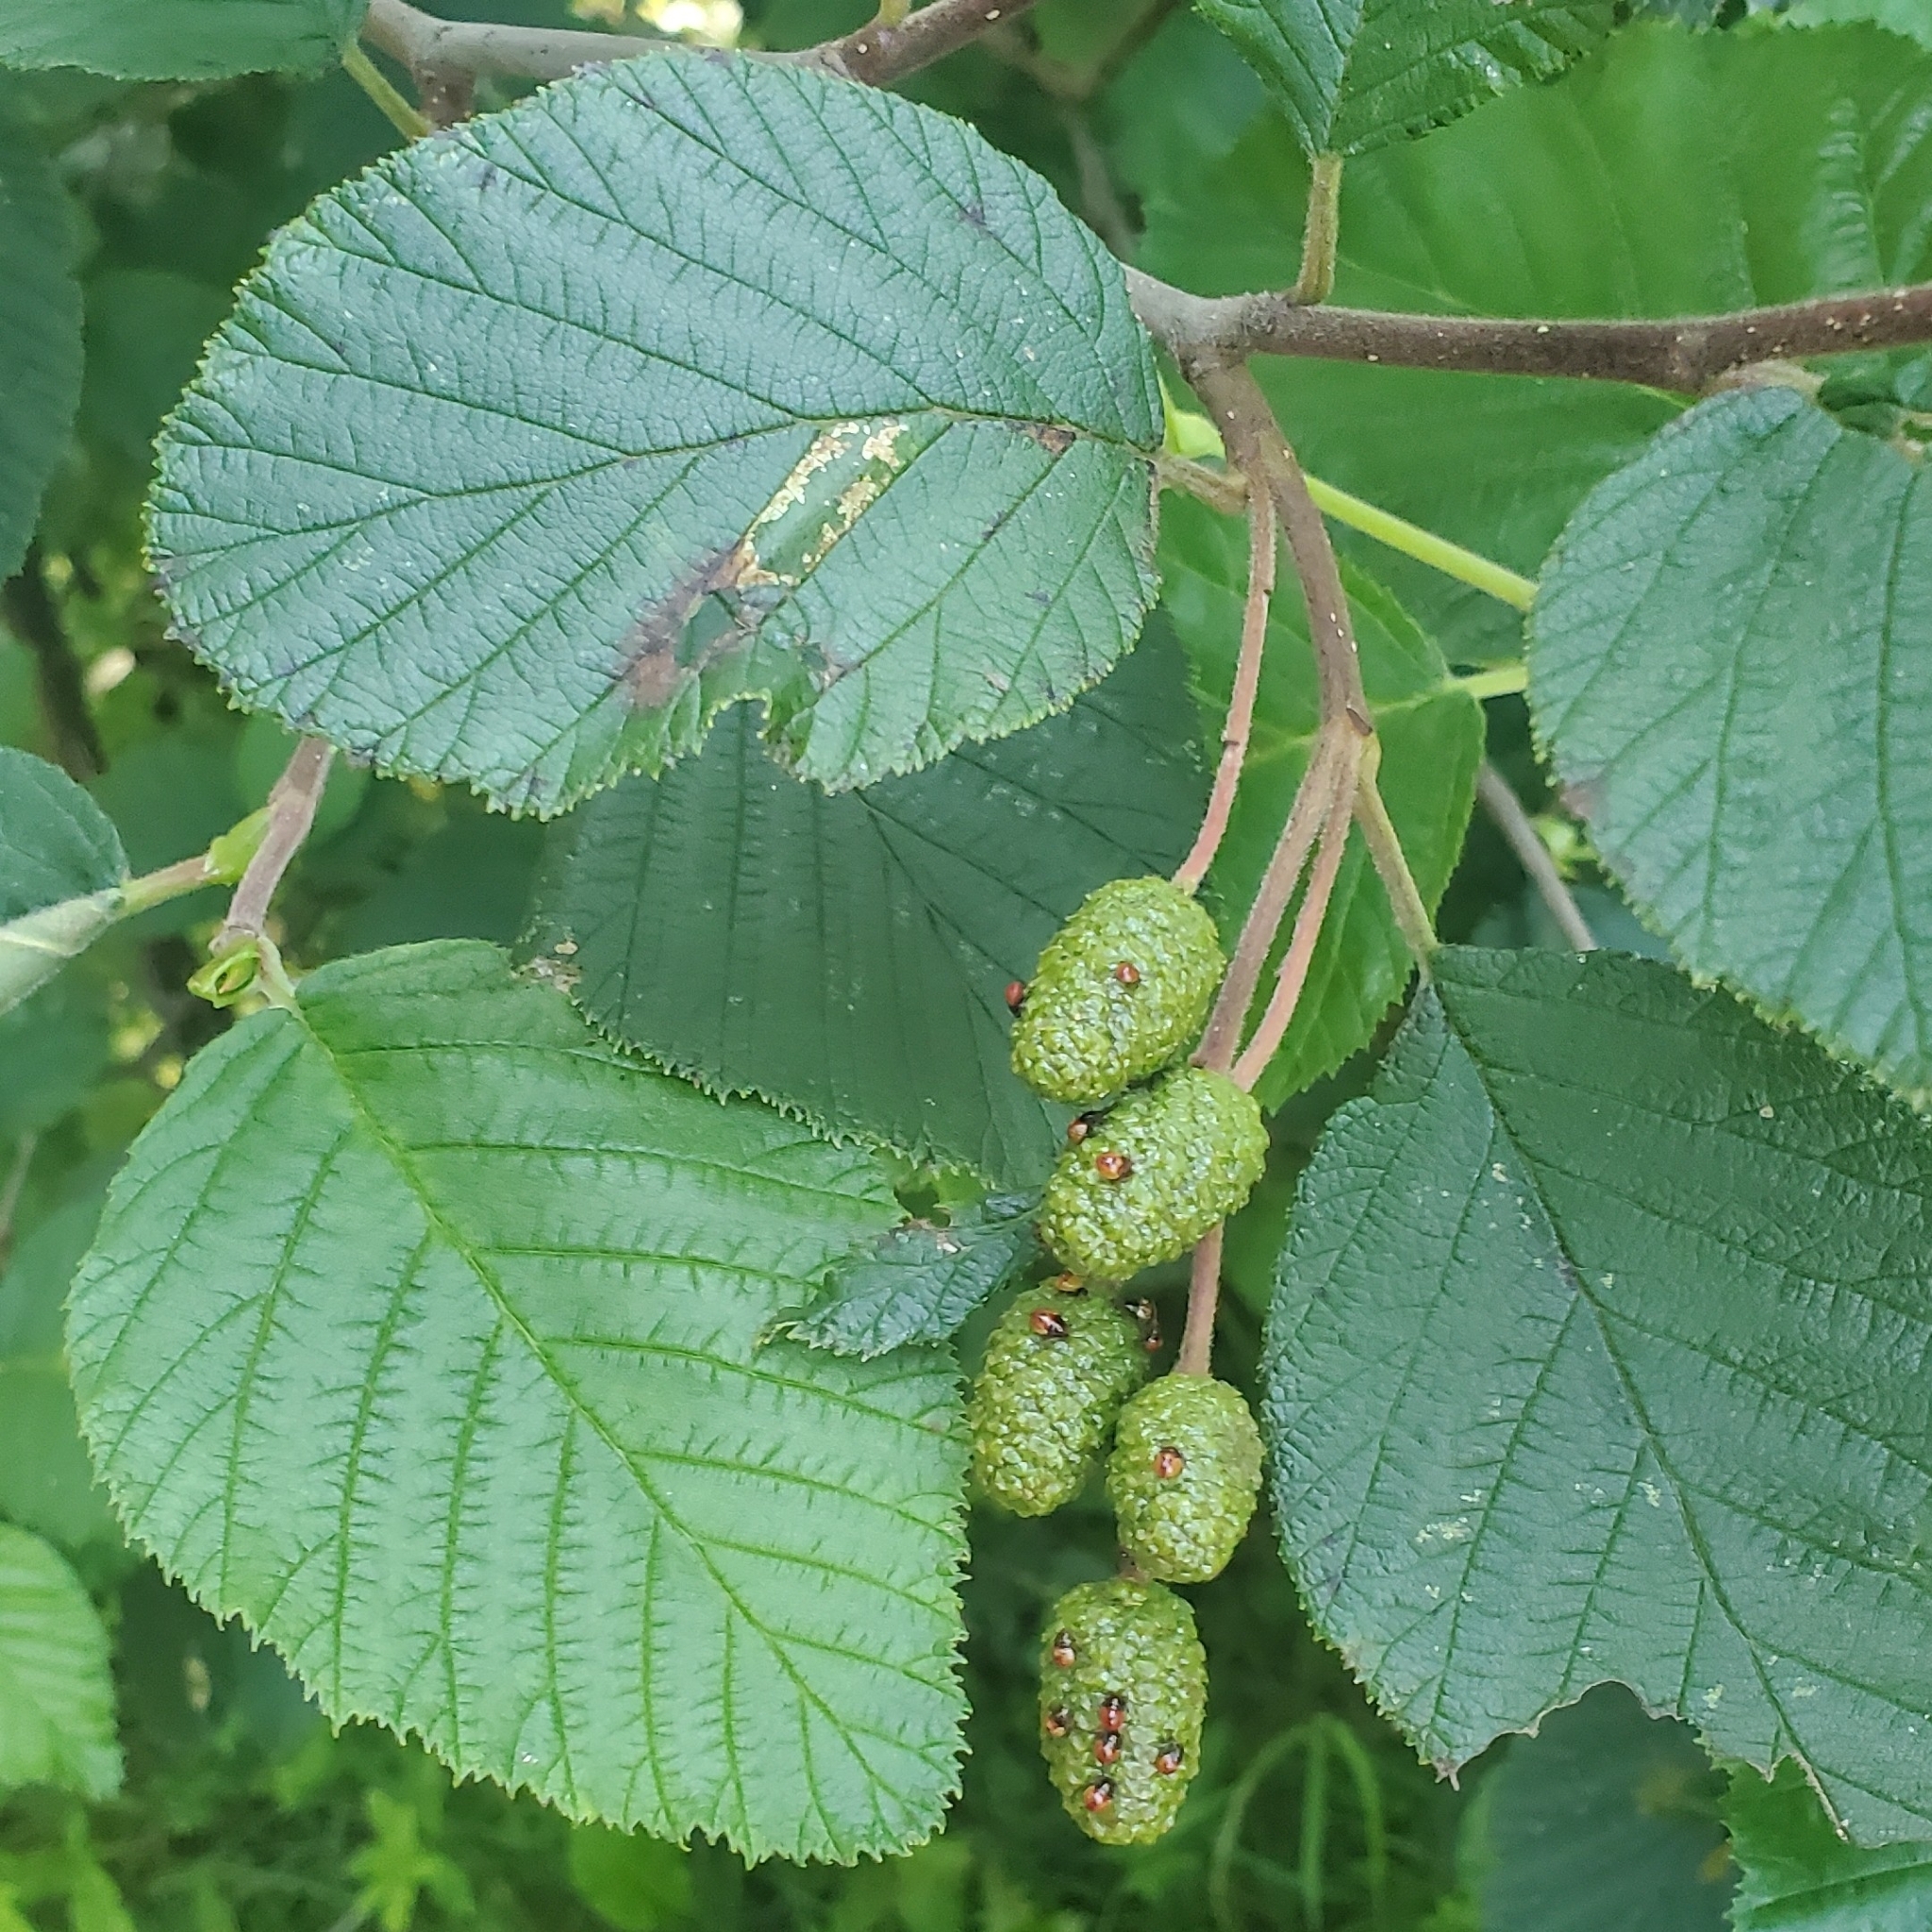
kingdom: Plantae
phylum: Tracheophyta
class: Magnoliopsida
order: Fagales
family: Betulaceae
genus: Alnus
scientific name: Alnus alnobetula
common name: Green alder
